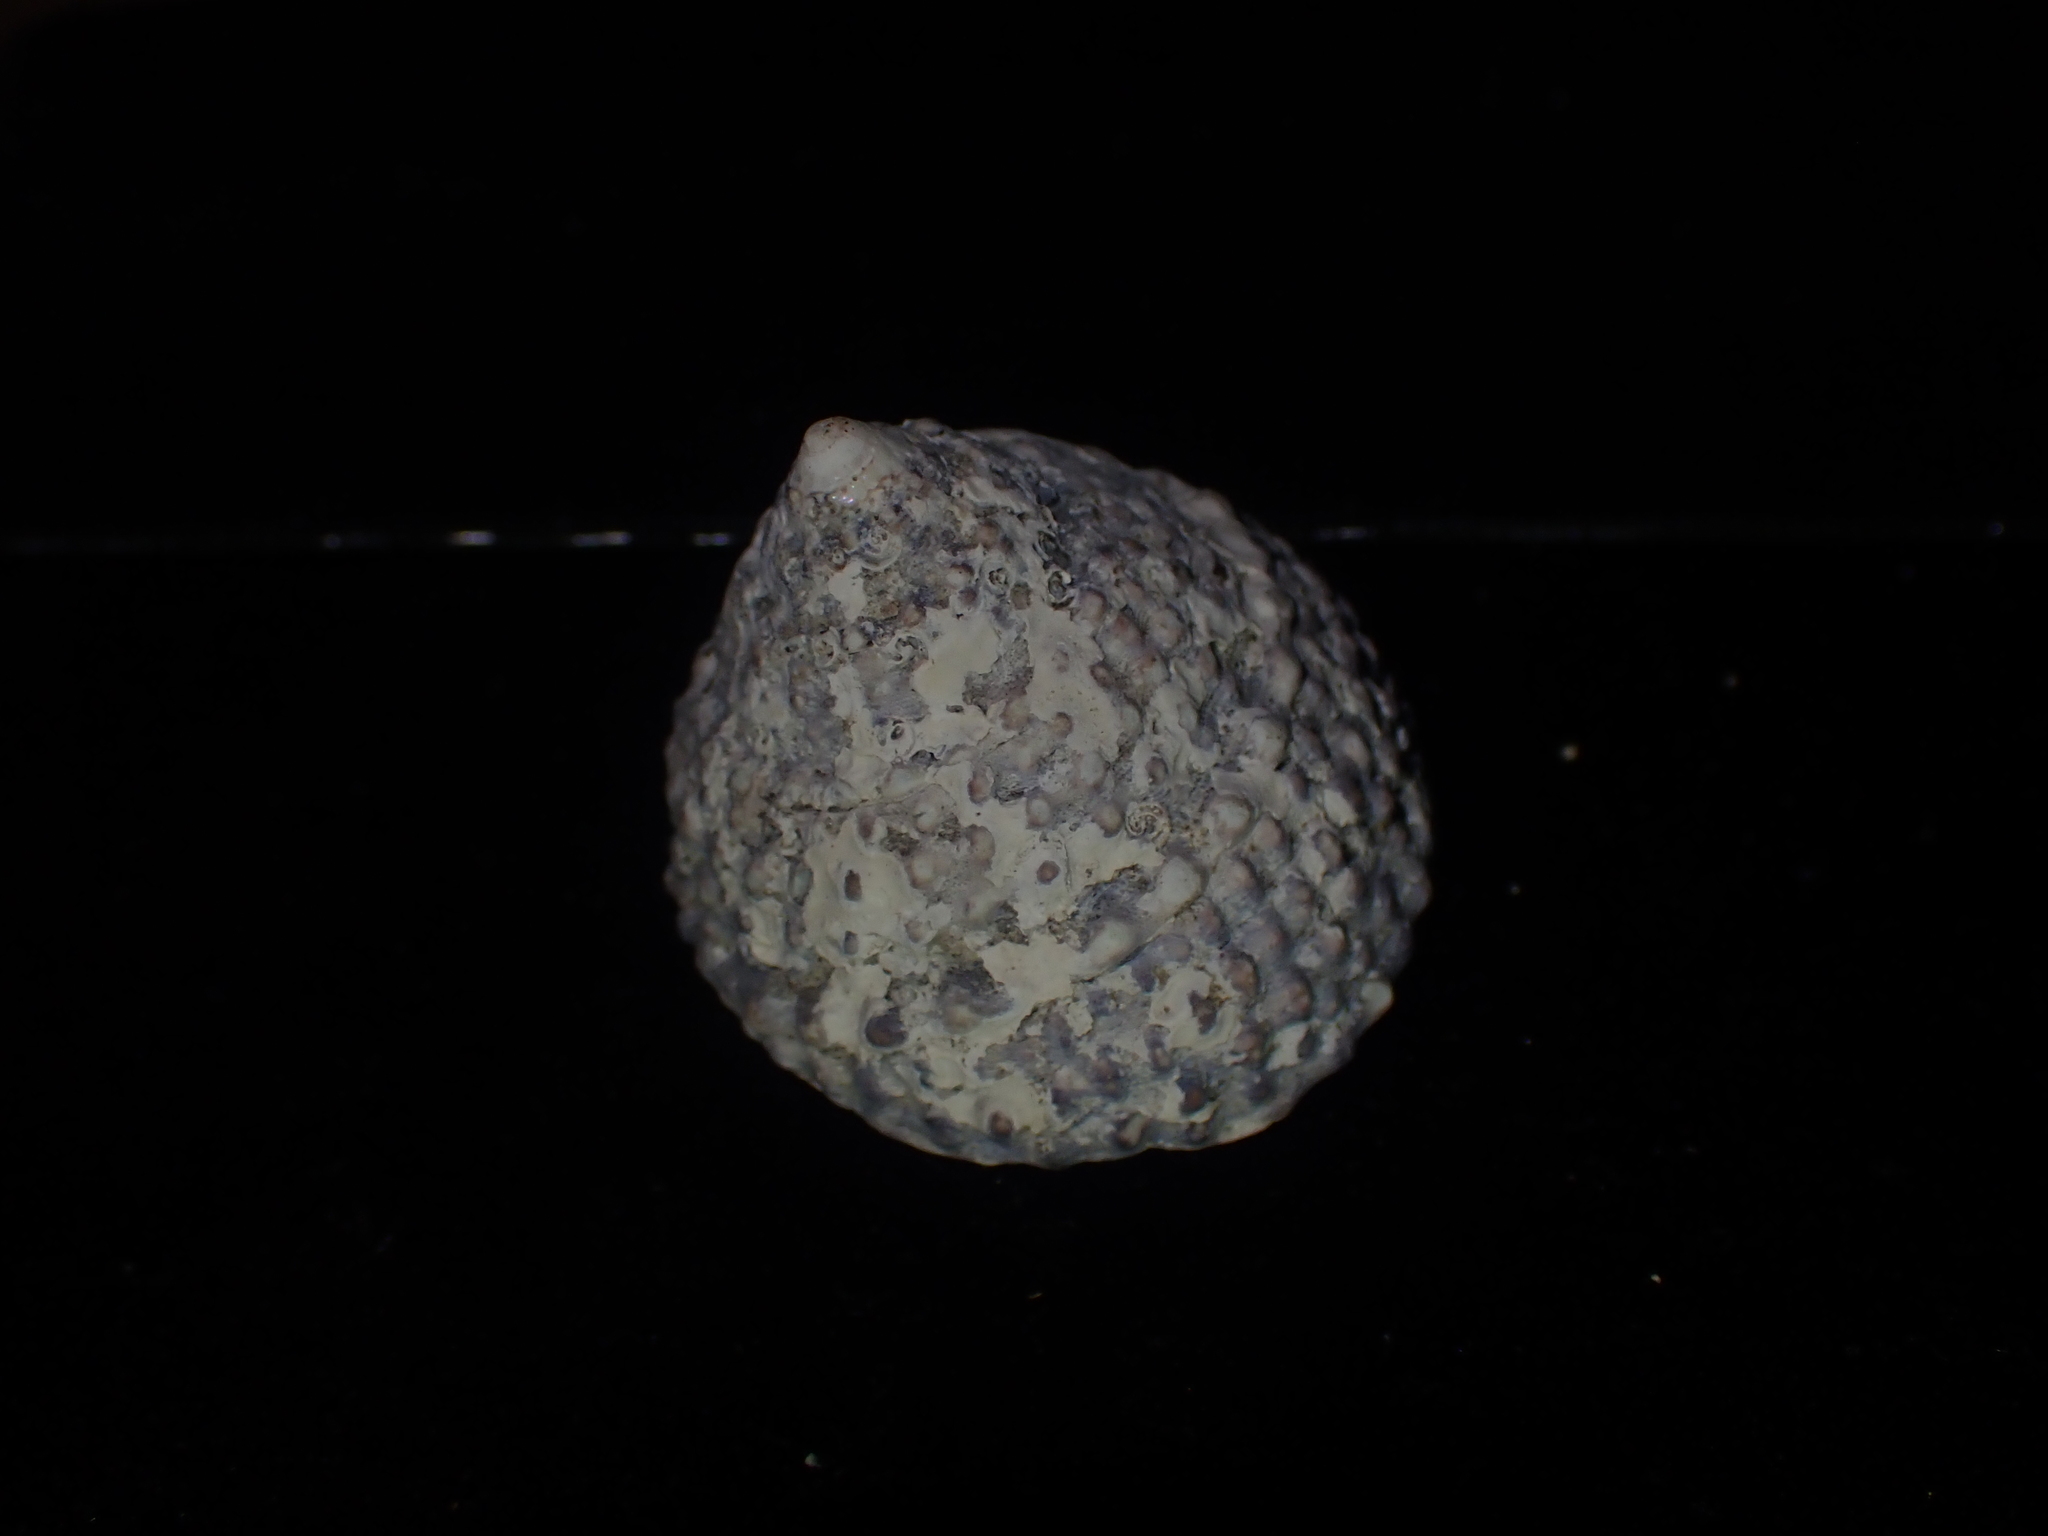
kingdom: Animalia
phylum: Mollusca
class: Gastropoda
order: Trochida
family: Trochidae
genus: Coelotrochus
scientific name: Coelotrochus viridis
